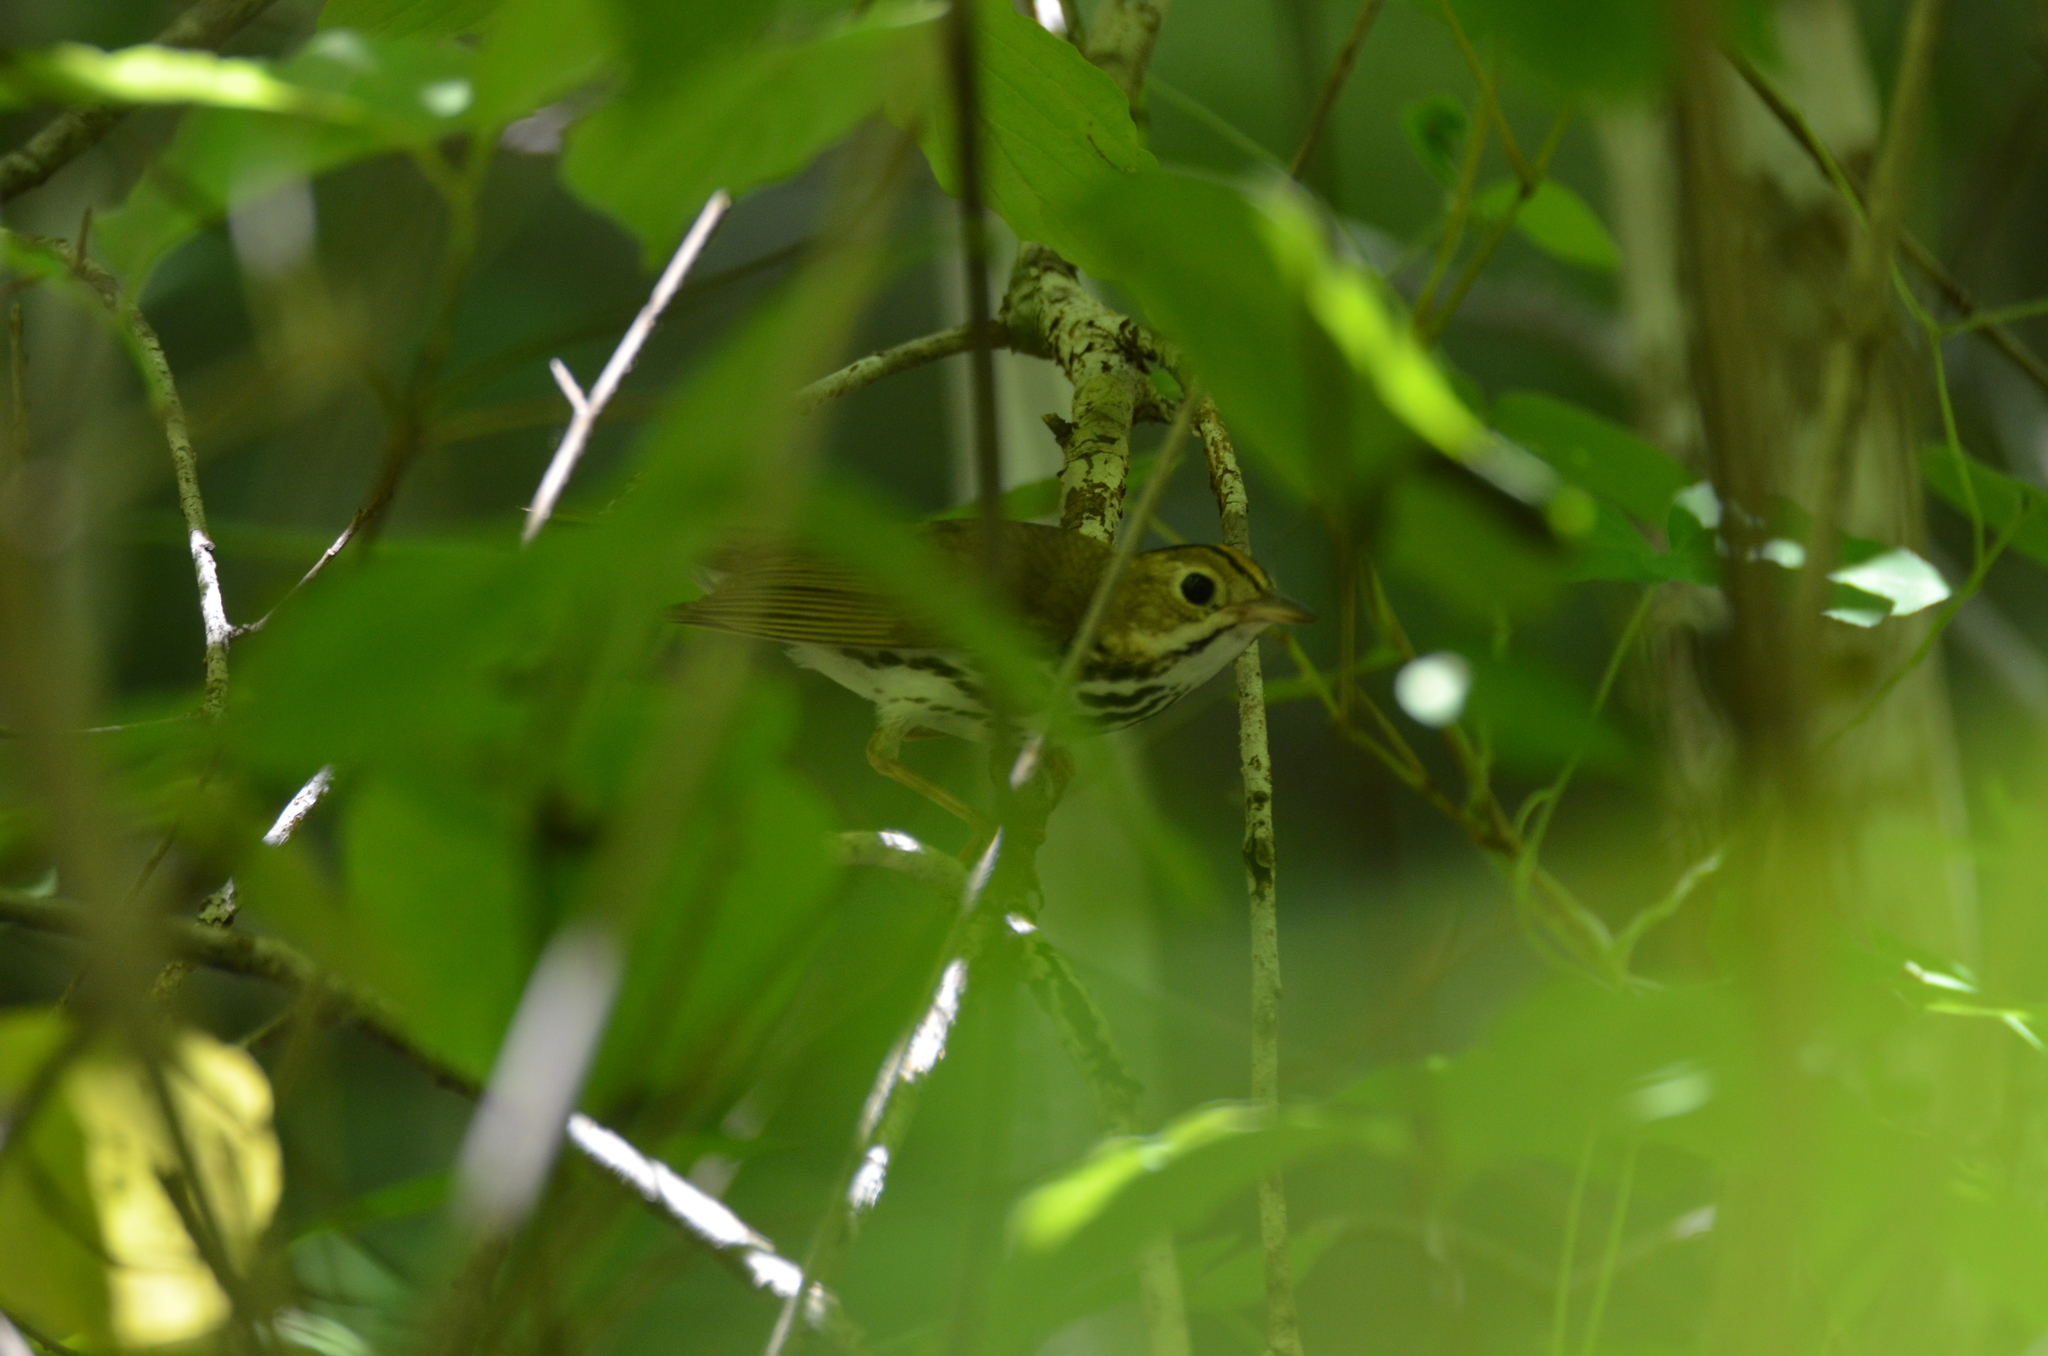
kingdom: Animalia
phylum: Chordata
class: Aves
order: Passeriformes
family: Parulidae
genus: Seiurus
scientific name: Seiurus aurocapilla
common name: Ovenbird
